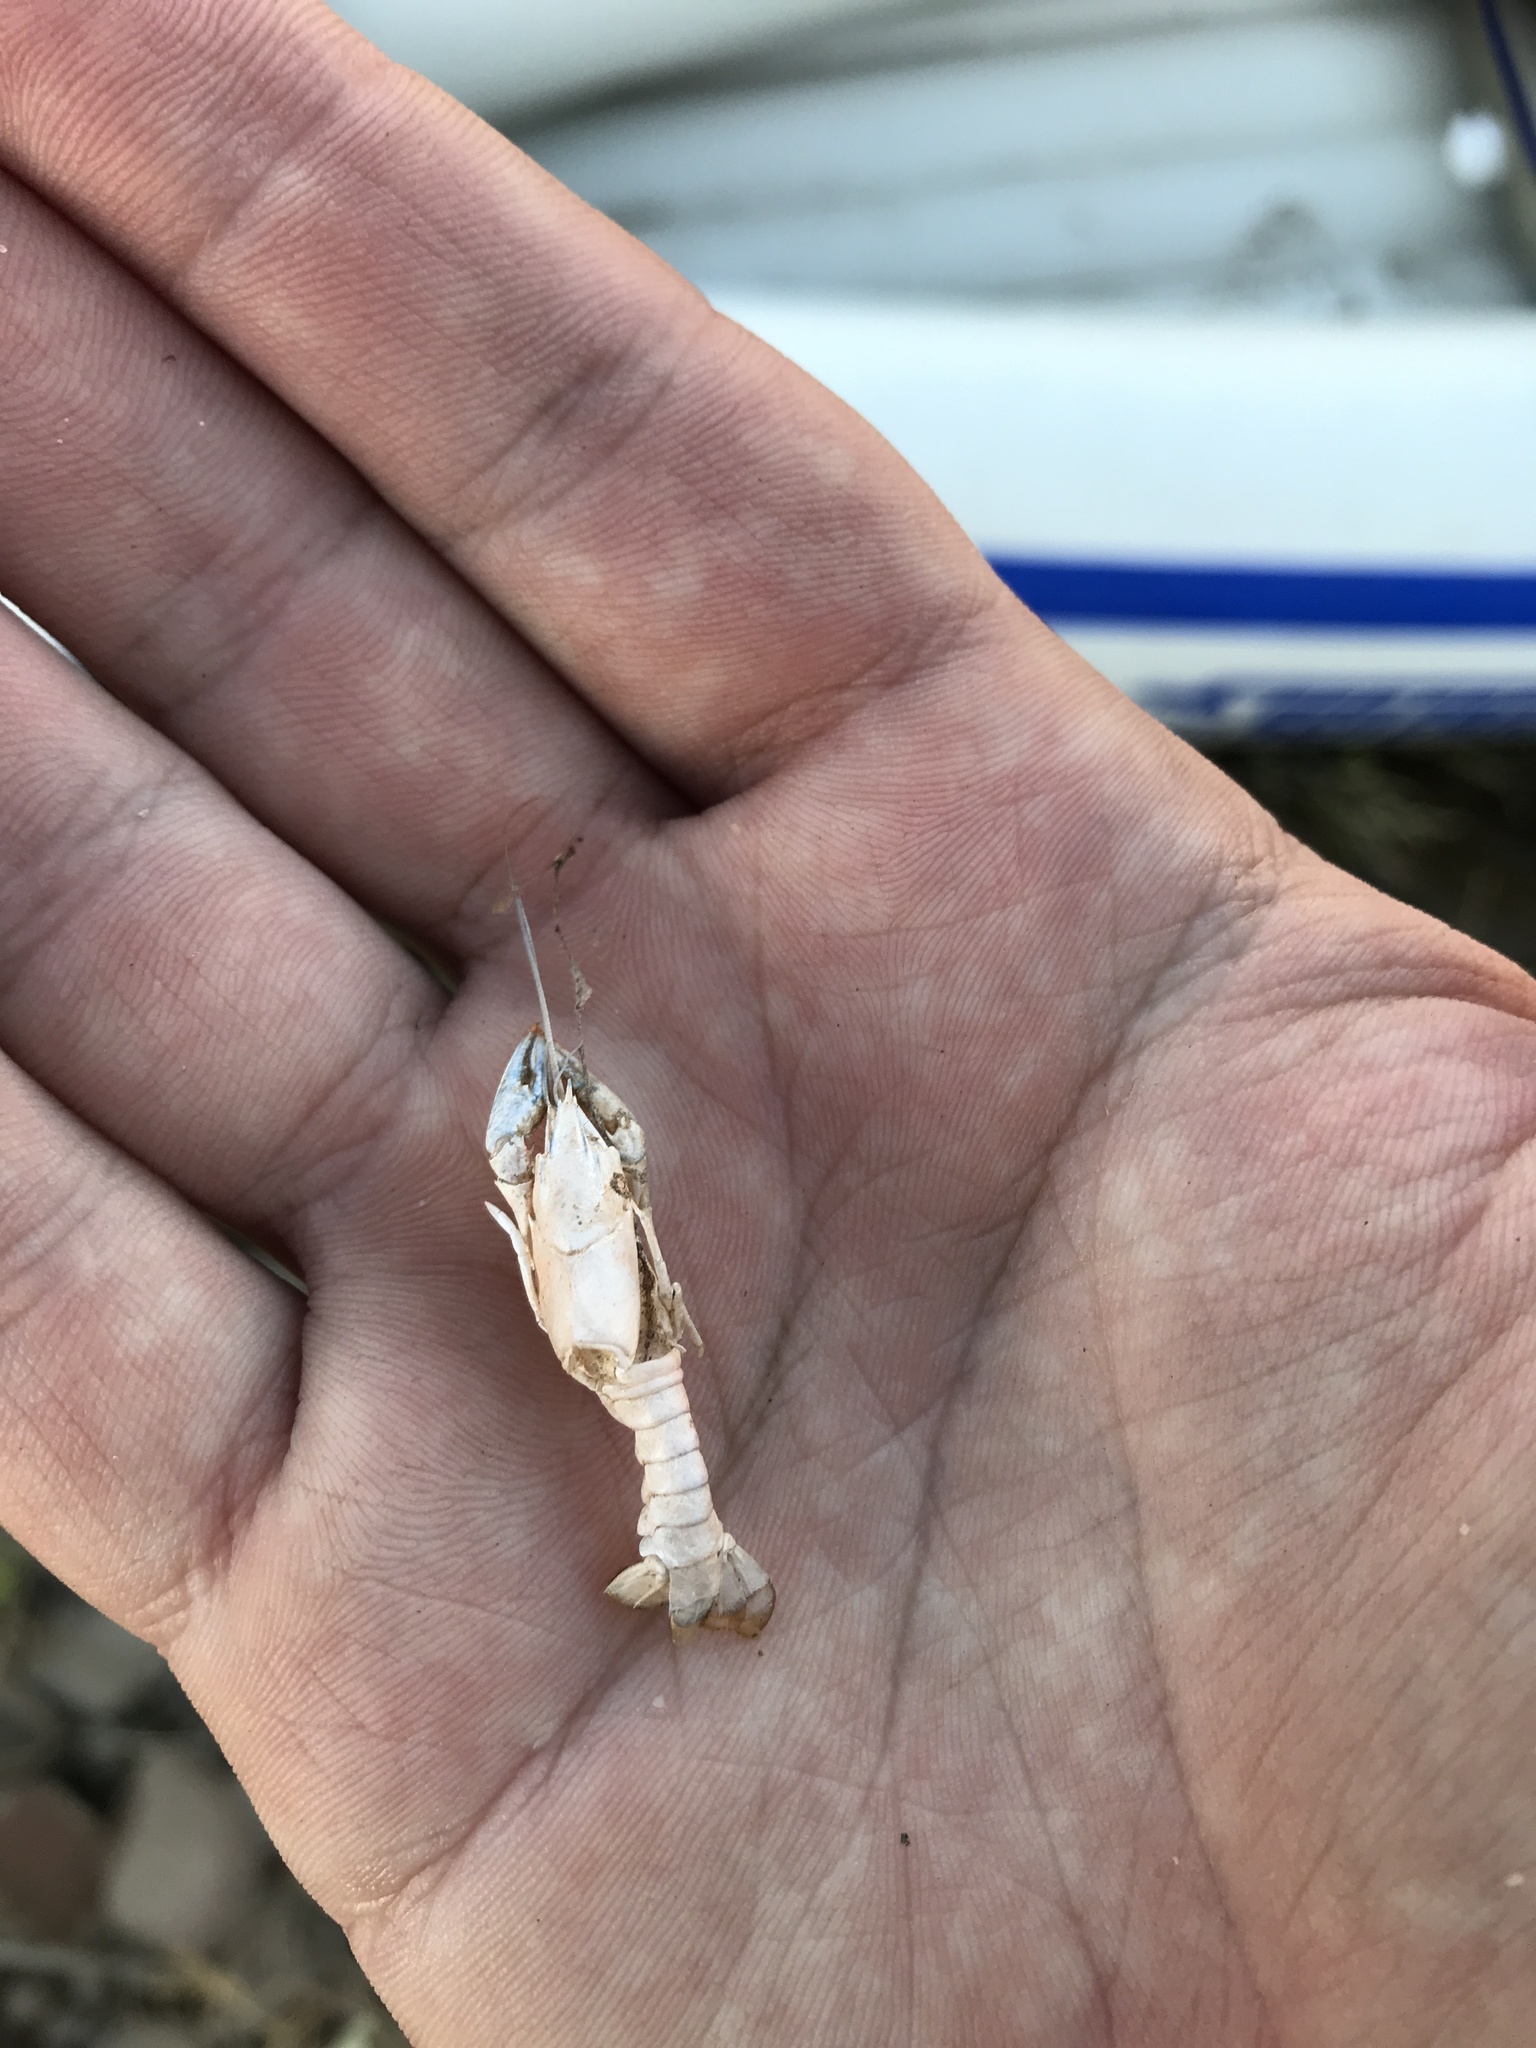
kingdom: Animalia
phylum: Arthropoda
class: Malacostraca
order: Decapoda
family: Cambaridae
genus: Faxonius
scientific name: Faxonius virilis
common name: Virile crayfish
